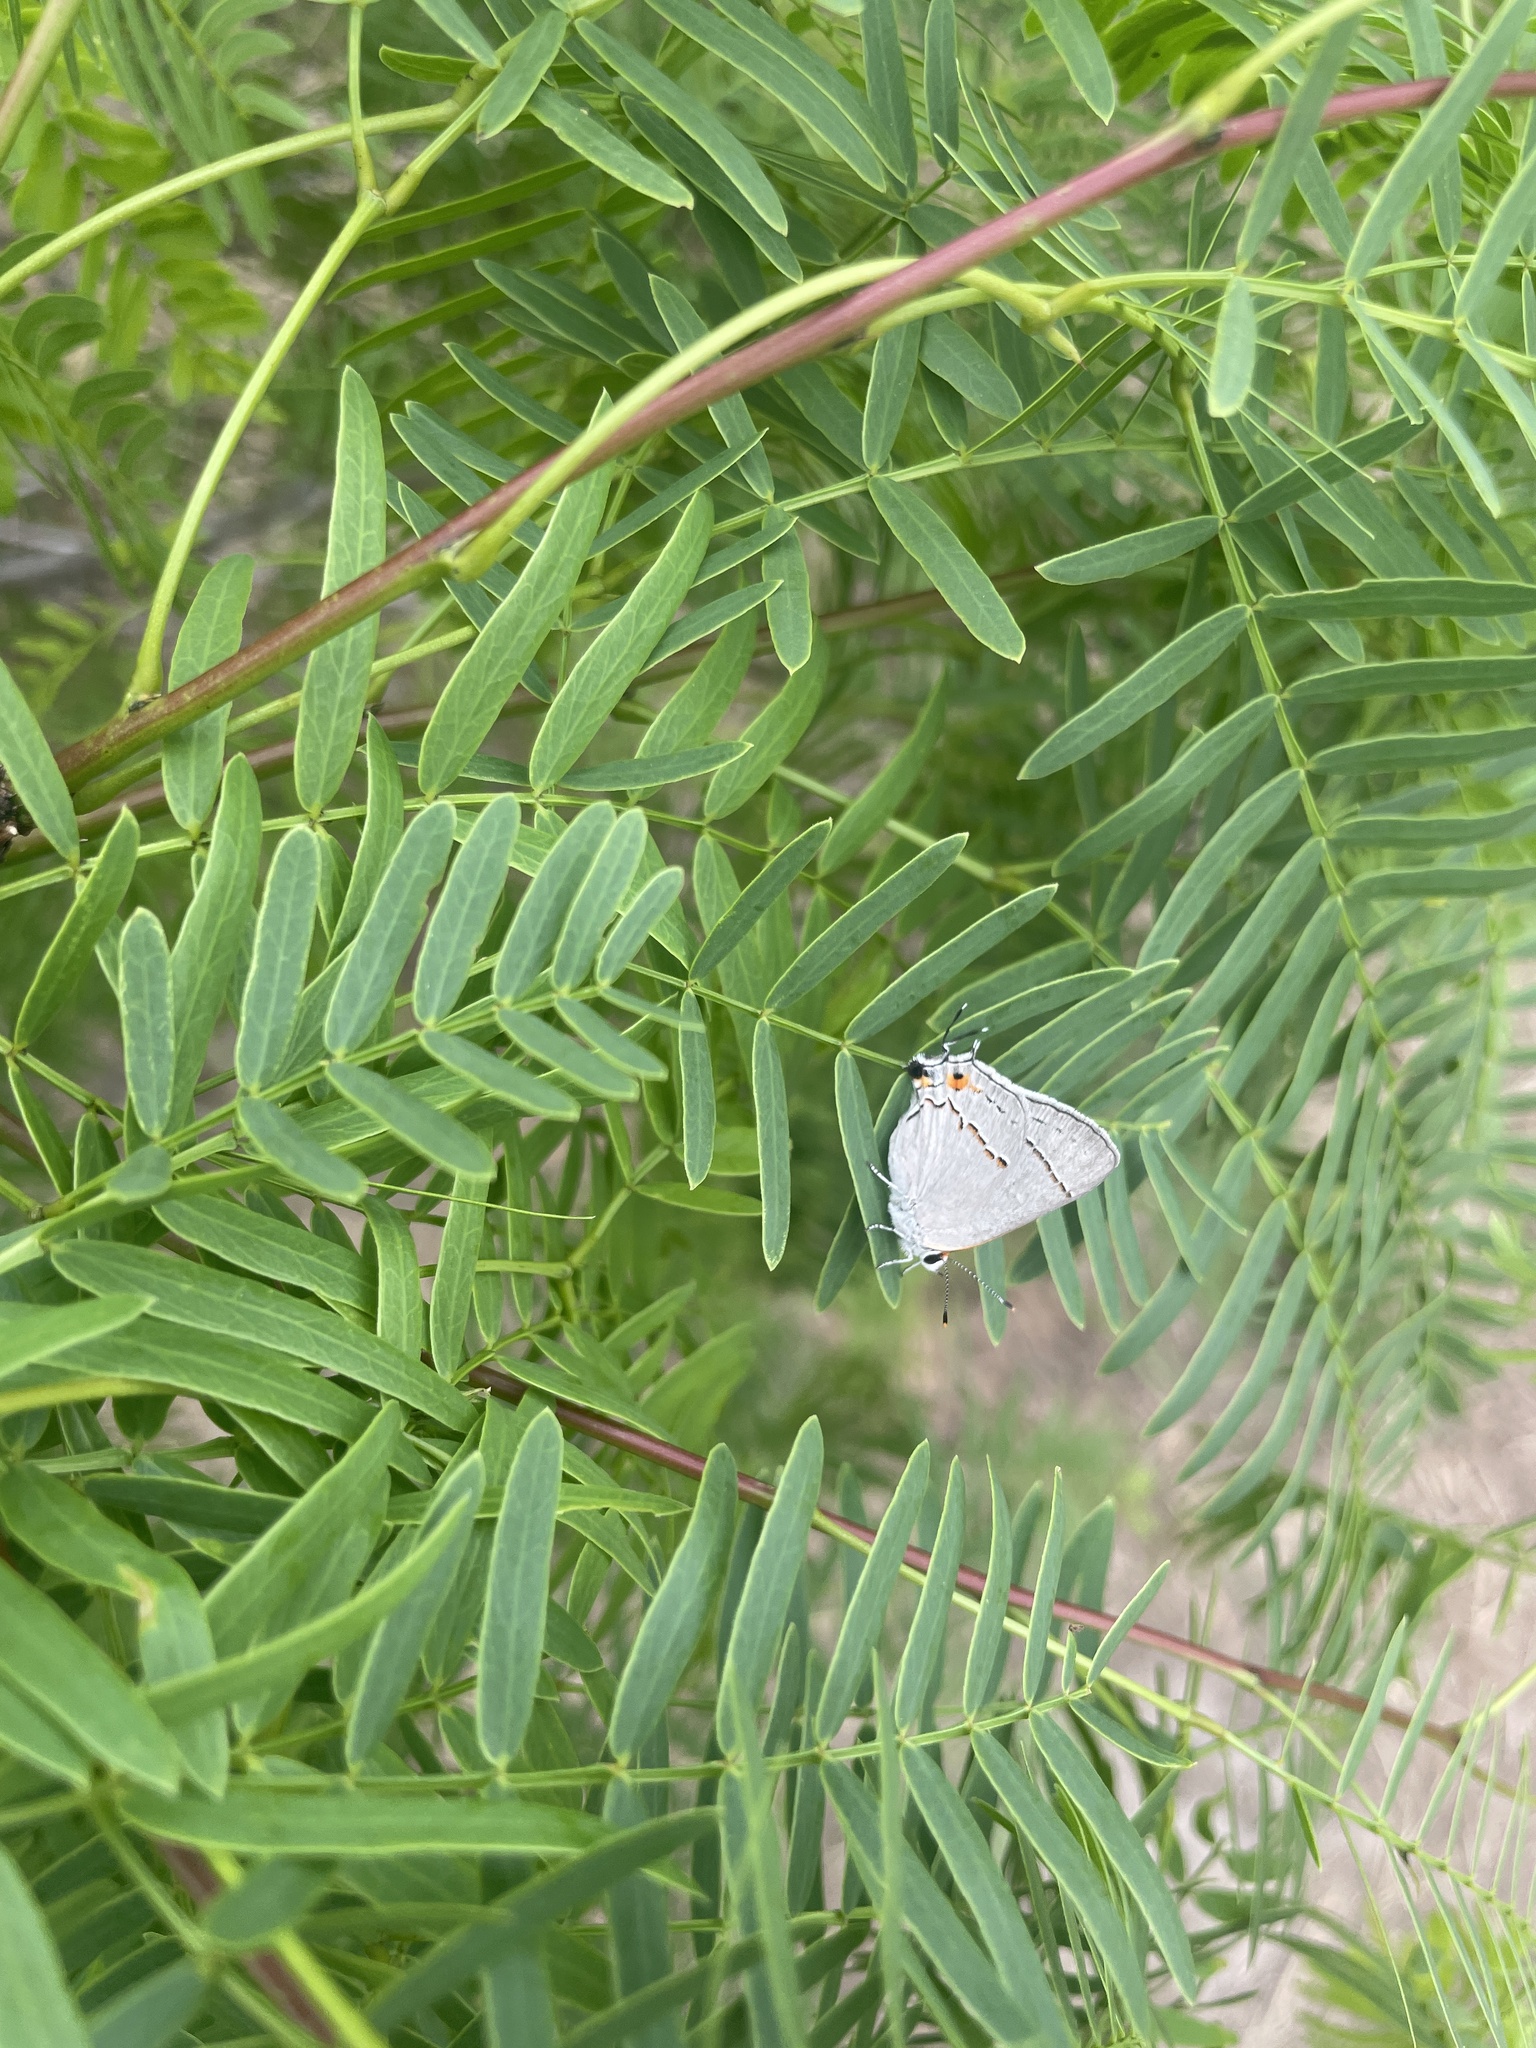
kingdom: Animalia
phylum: Arthropoda
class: Insecta
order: Lepidoptera
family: Lycaenidae
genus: Strymon
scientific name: Strymon melinus
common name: Gray hairstreak
